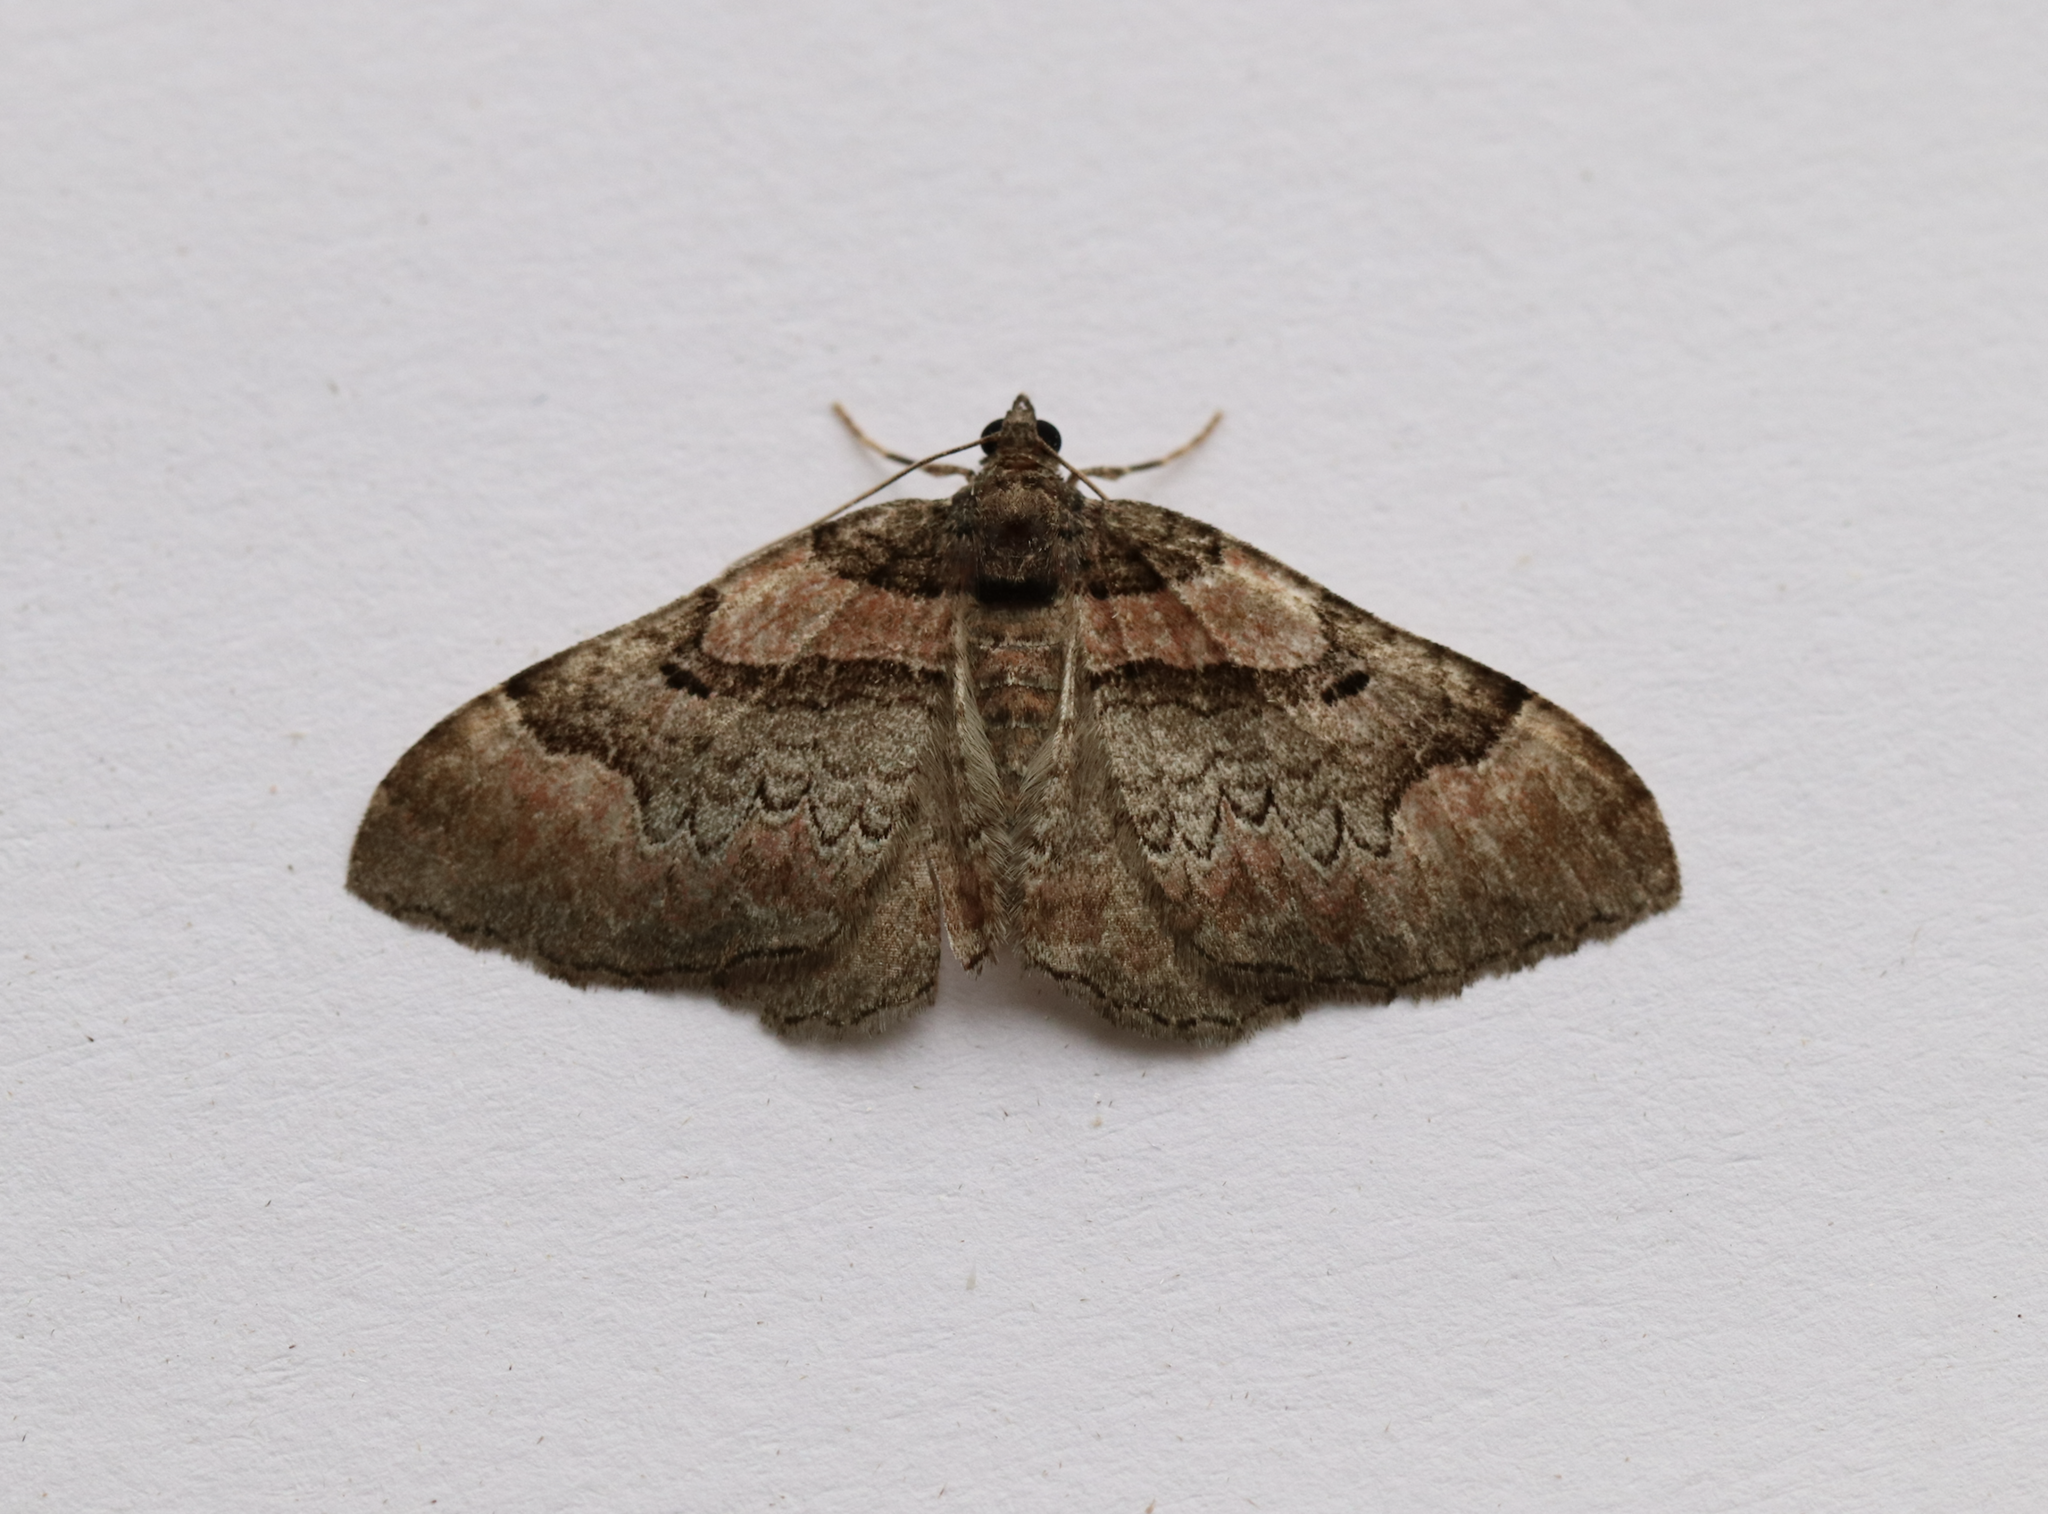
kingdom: Animalia
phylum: Arthropoda
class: Insecta
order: Lepidoptera
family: Geometridae
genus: Catarhoe
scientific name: Catarhoe rubidata
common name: Ruddy carpet
